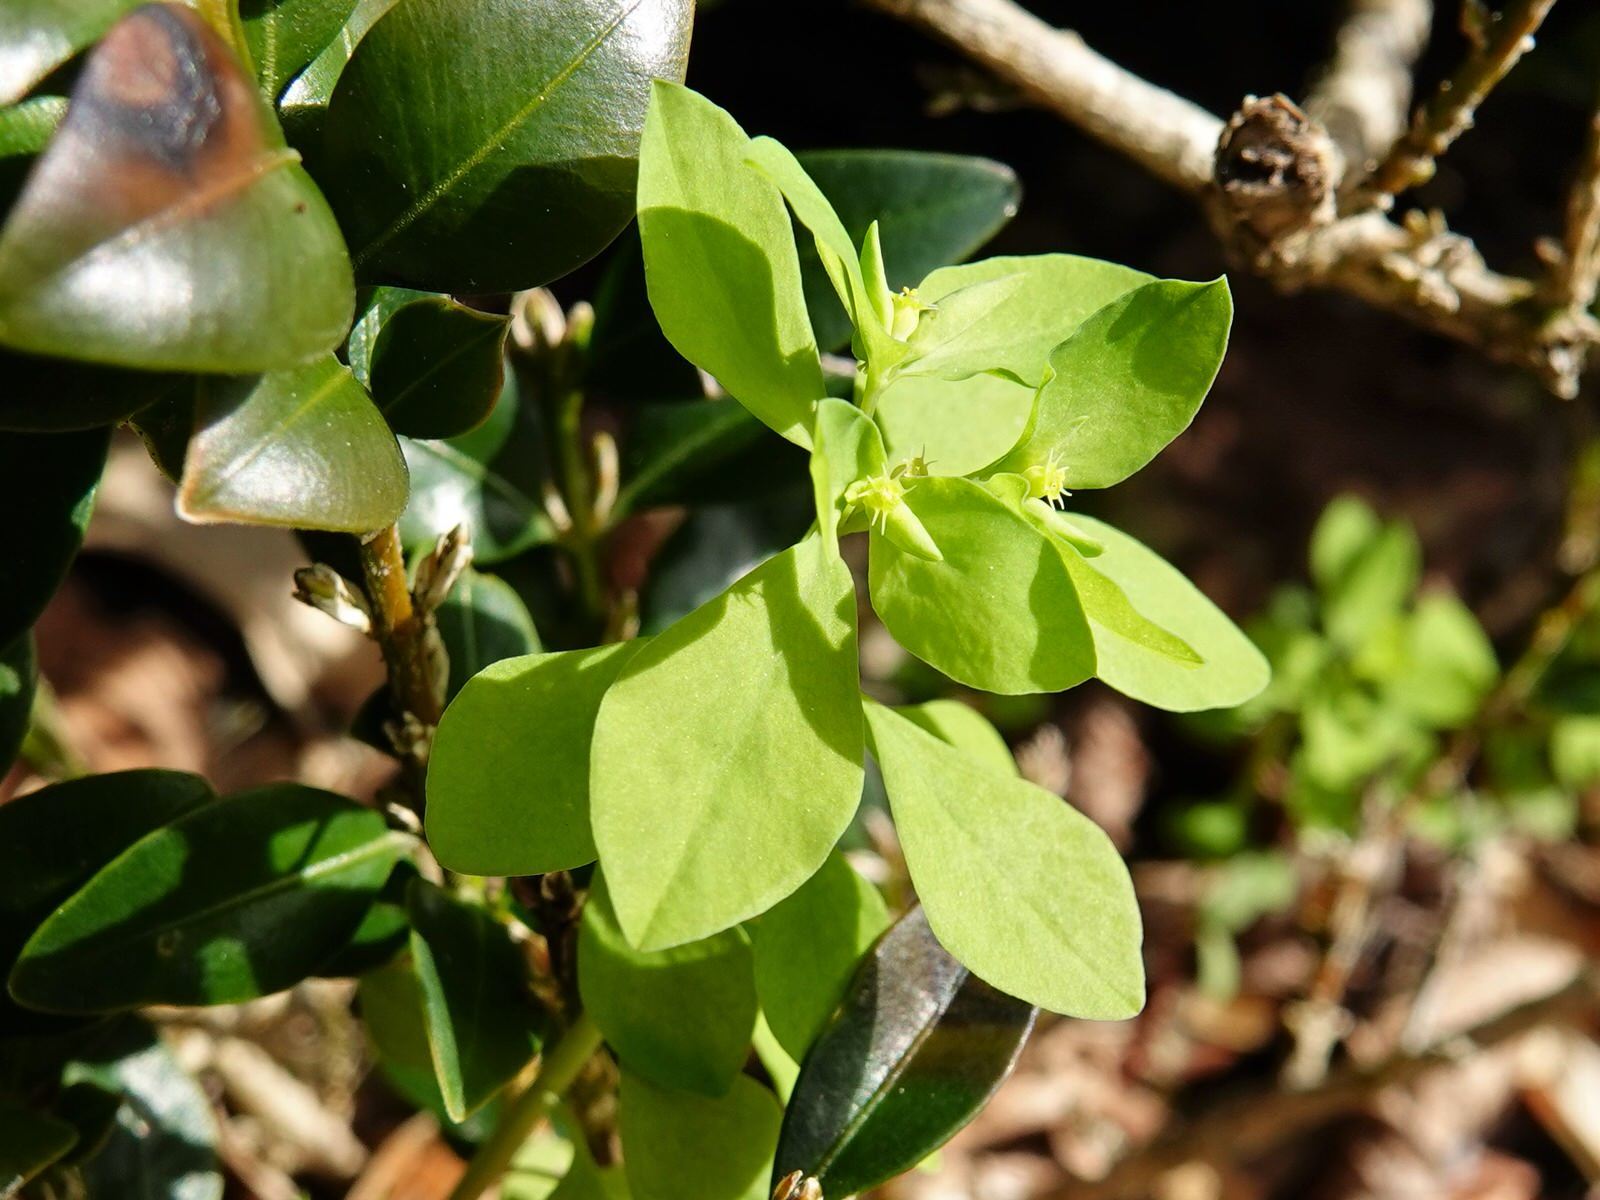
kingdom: Plantae
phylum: Tracheophyta
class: Magnoliopsida
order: Malpighiales
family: Euphorbiaceae
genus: Euphorbia
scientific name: Euphorbia peplus
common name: Petty spurge
